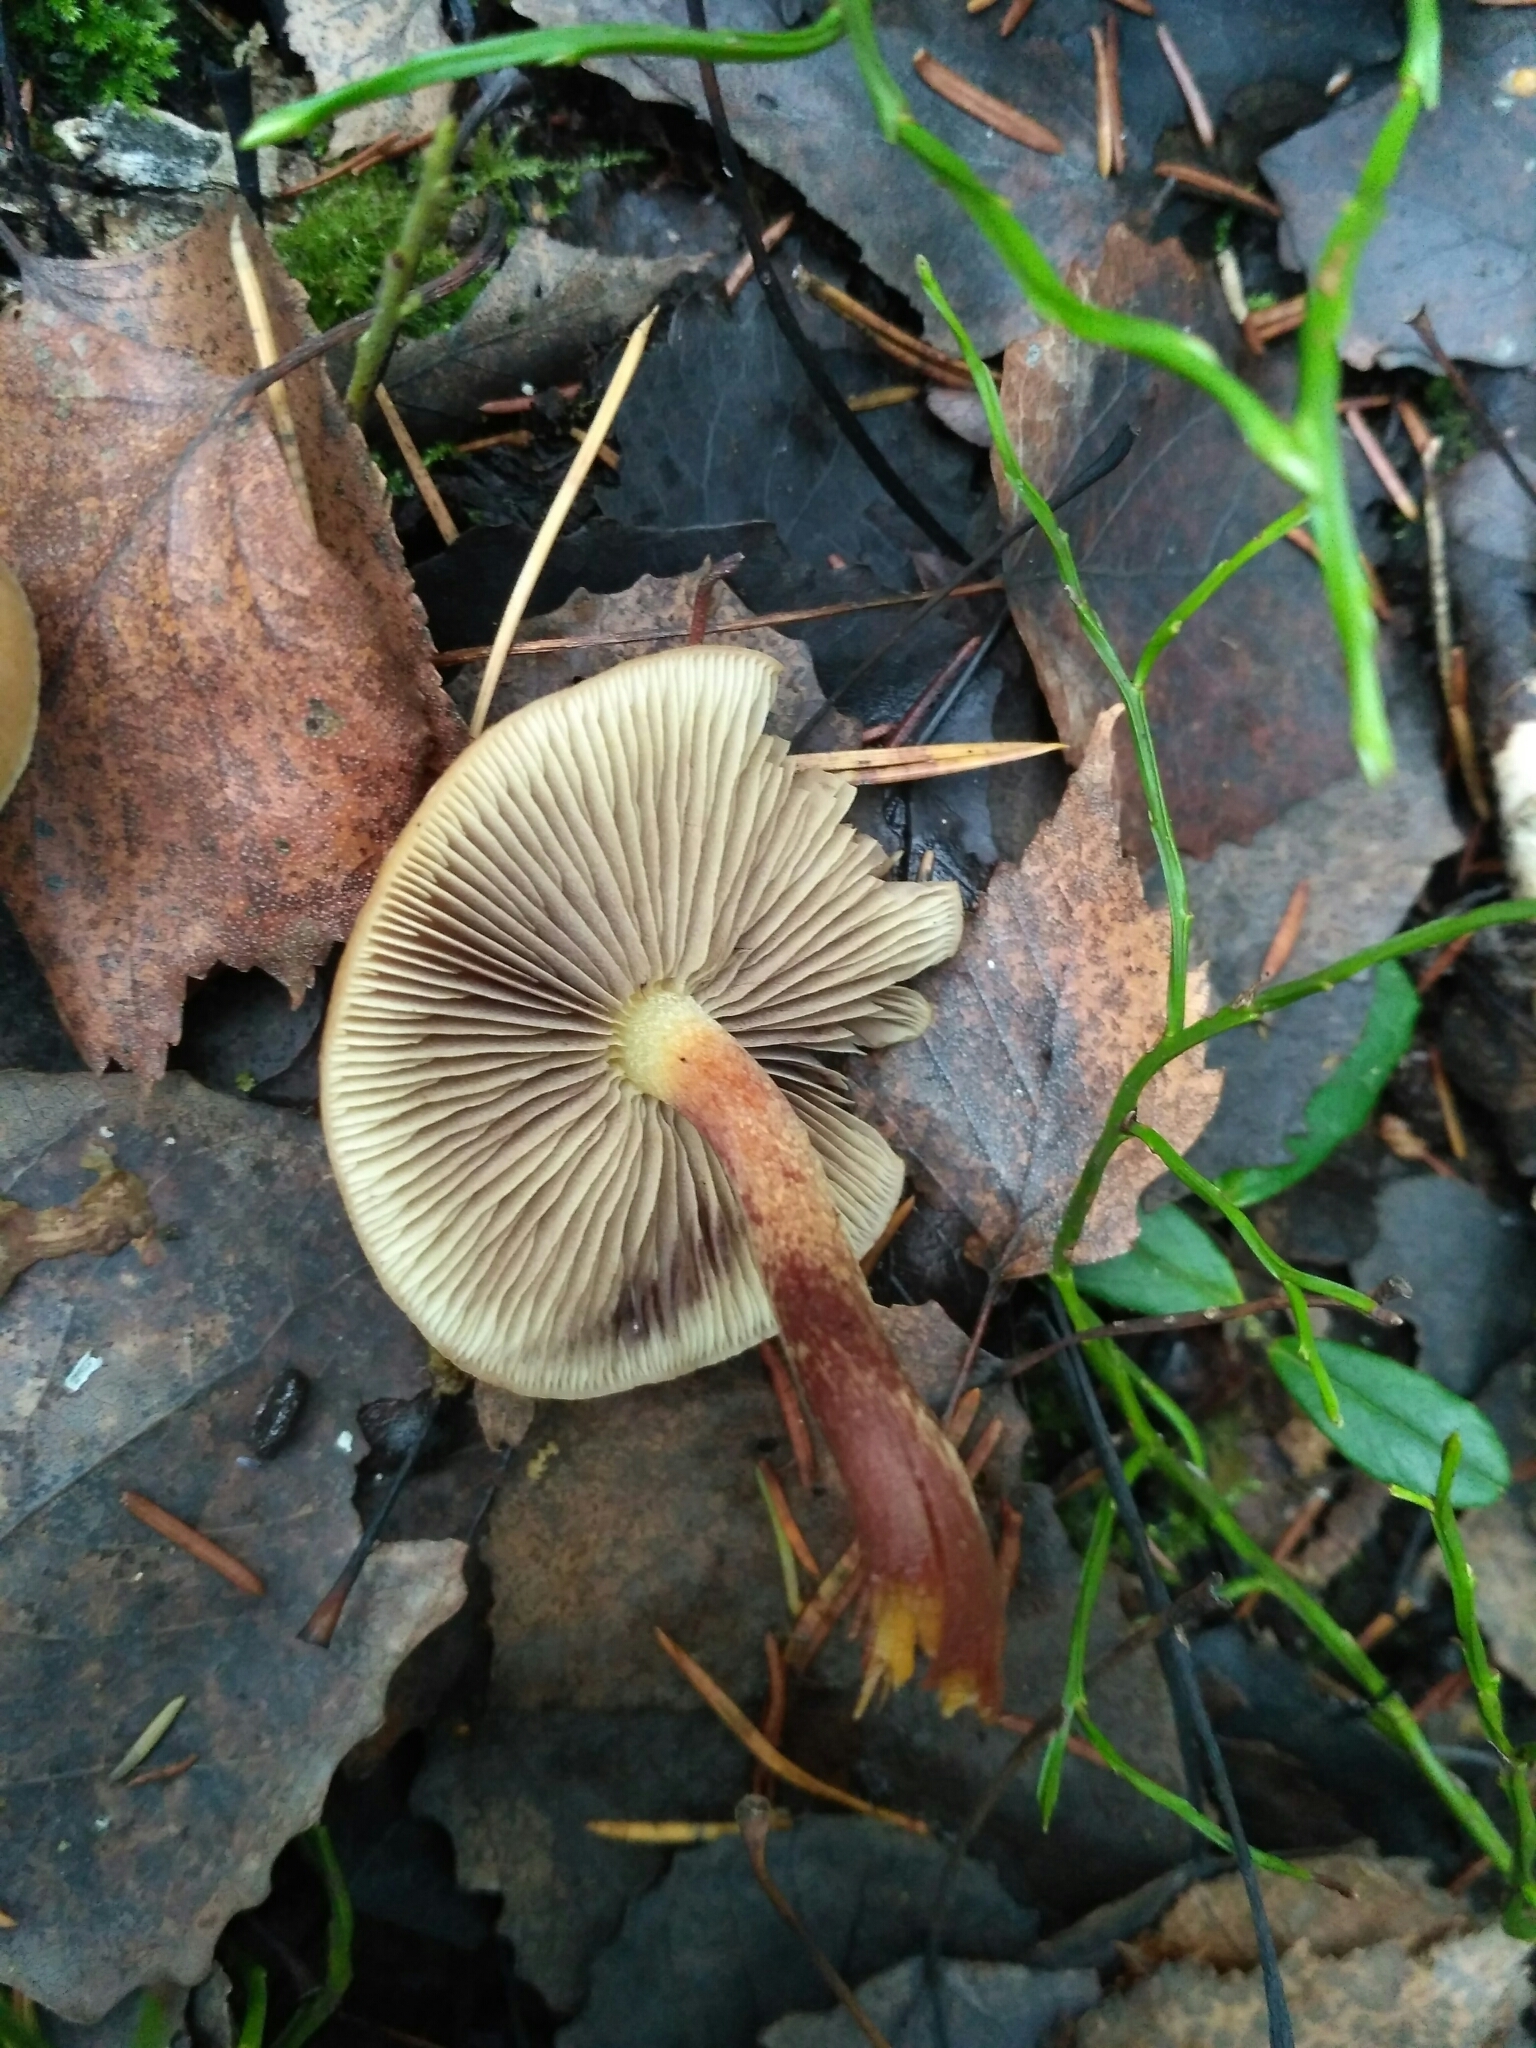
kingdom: Fungi
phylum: Basidiomycota
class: Agaricomycetes
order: Agaricales
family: Strophariaceae
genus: Hypholoma
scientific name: Hypholoma capnoides
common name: Conifer tuft
